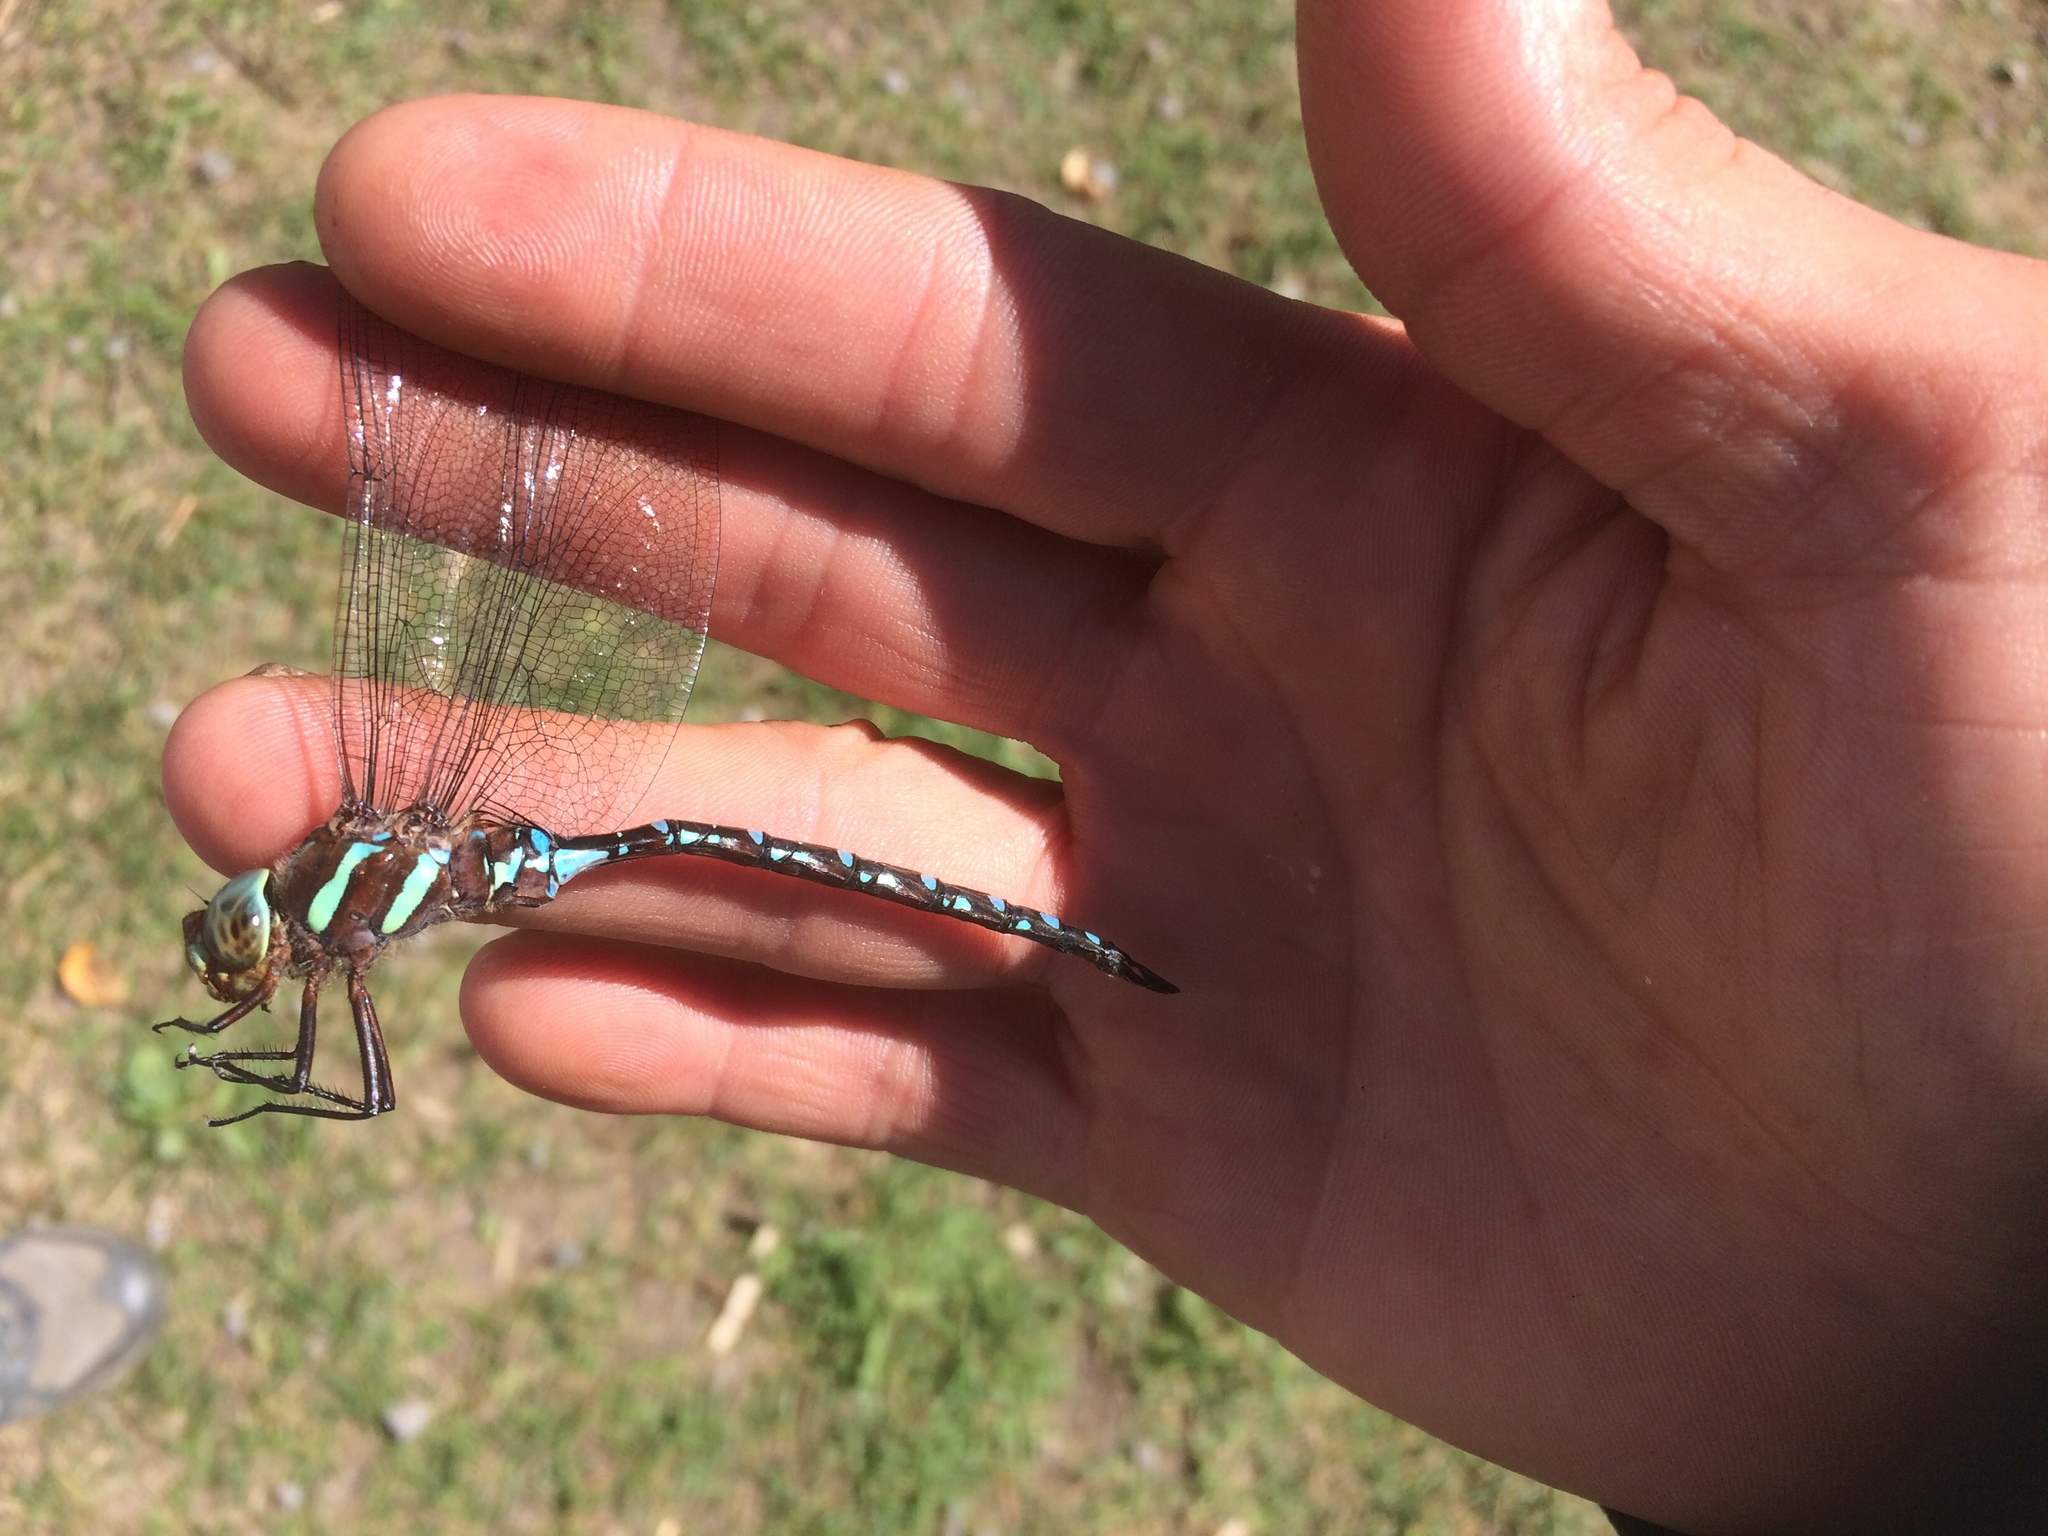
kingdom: Animalia
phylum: Arthropoda
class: Insecta
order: Odonata
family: Aeshnidae
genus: Aeshna
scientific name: Aeshna tuberculifera
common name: Aeschne à tubercules
